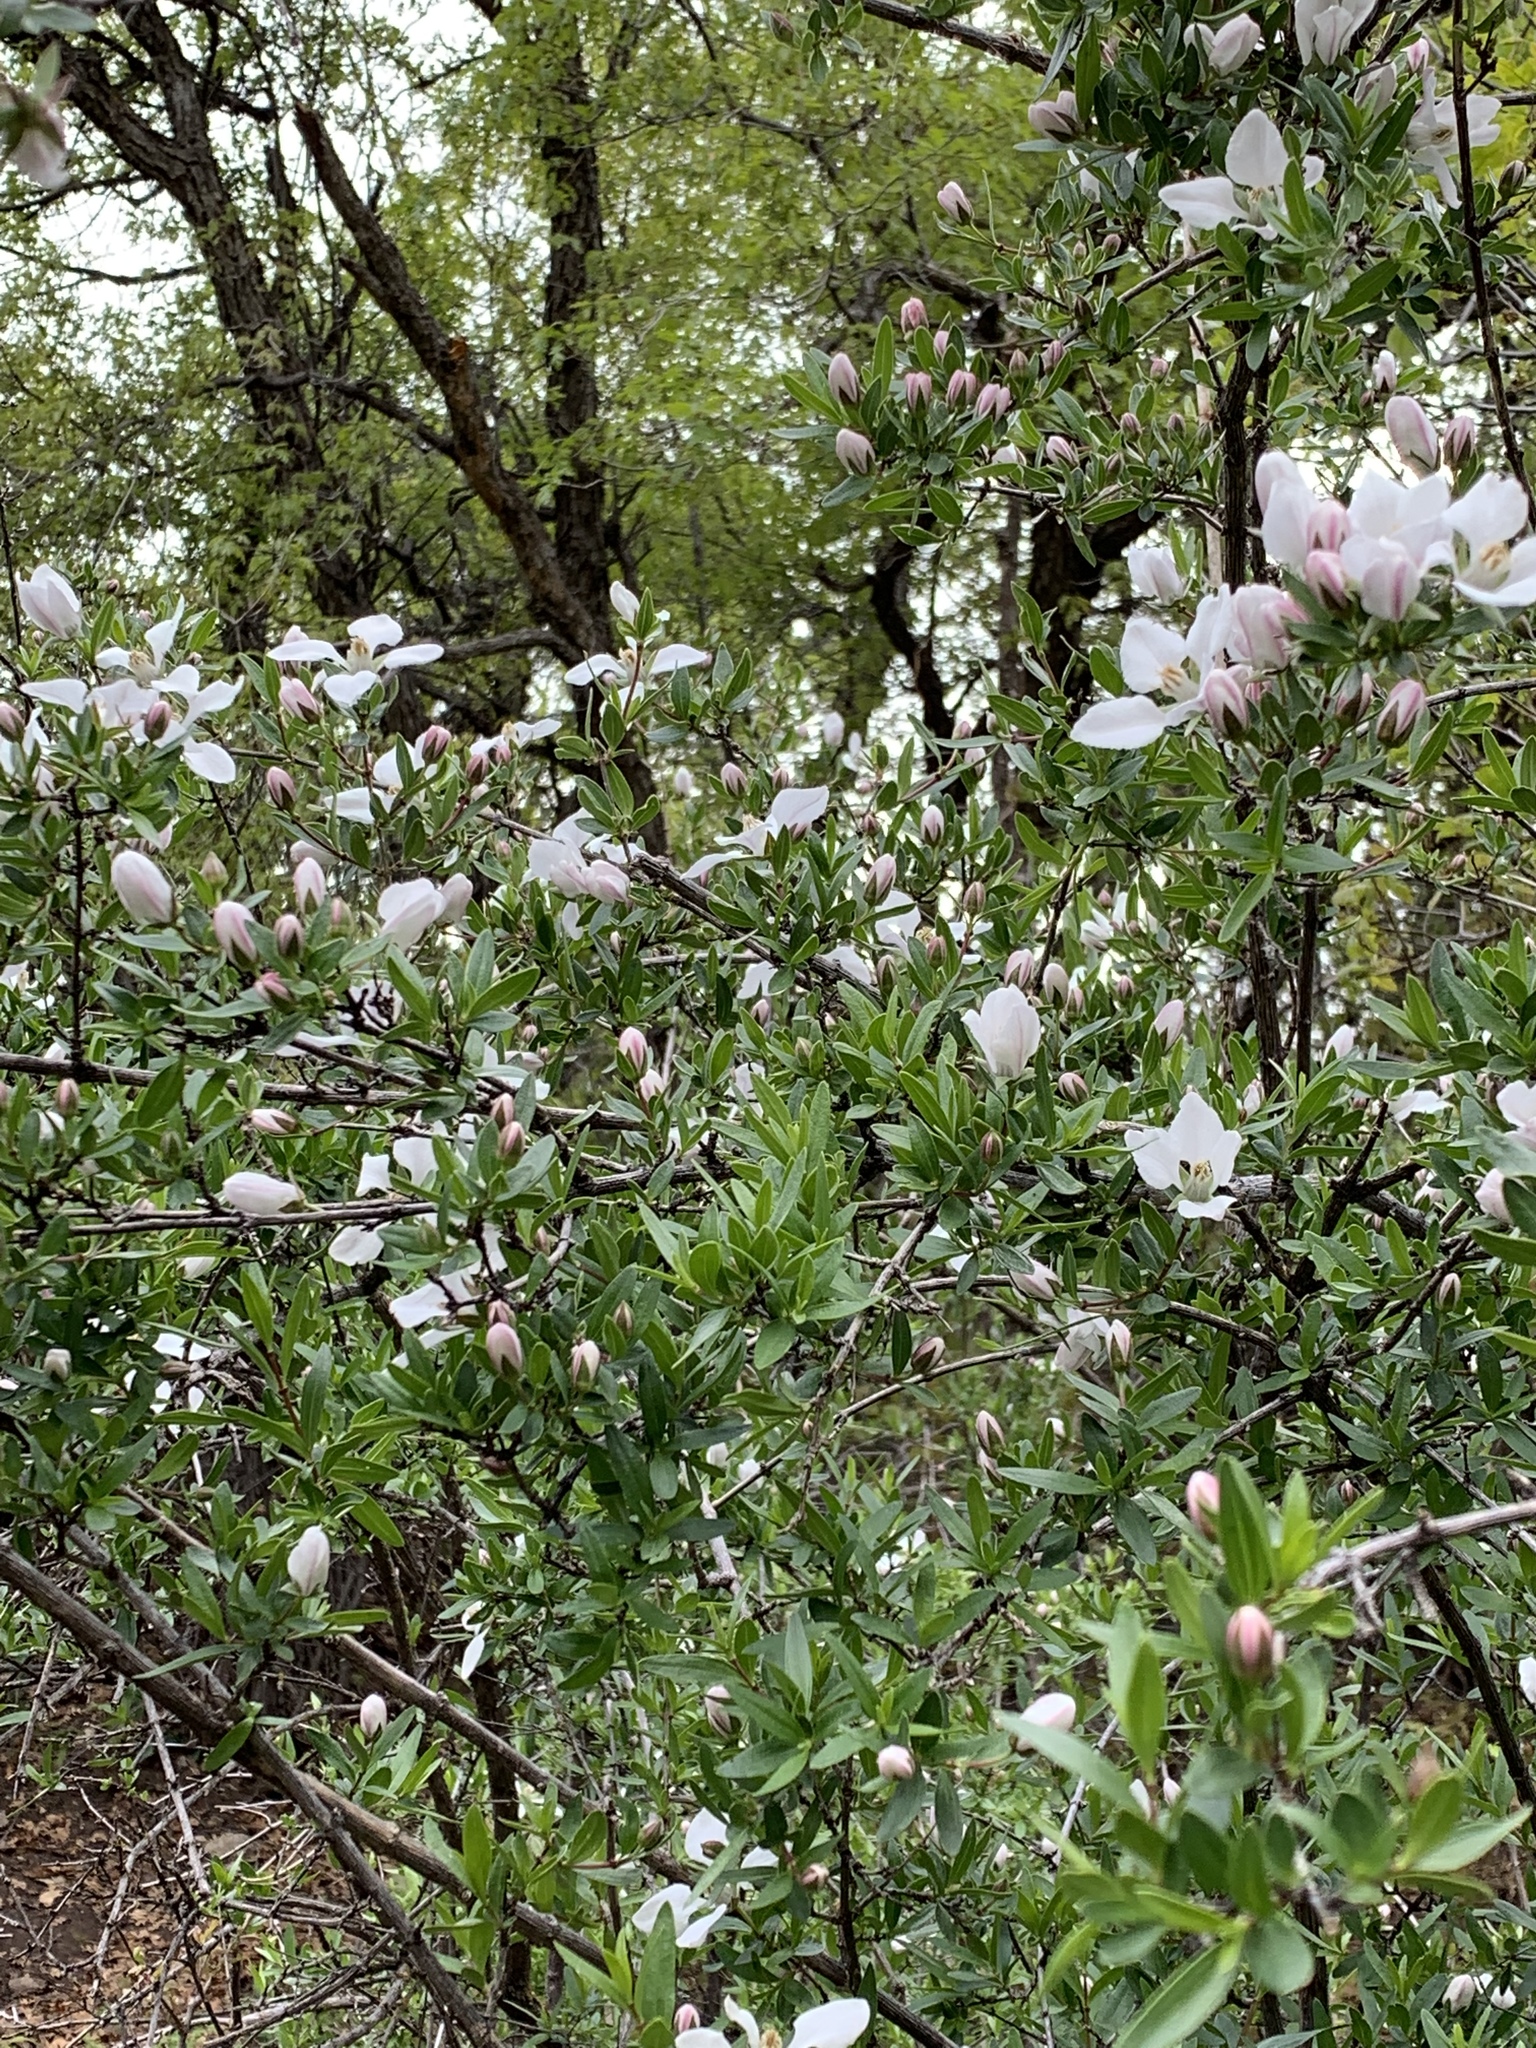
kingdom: Plantae
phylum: Tracheophyta
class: Magnoliopsida
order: Cornales
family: Hydrangeaceae
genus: Fendlera
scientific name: Fendlera rupicola
